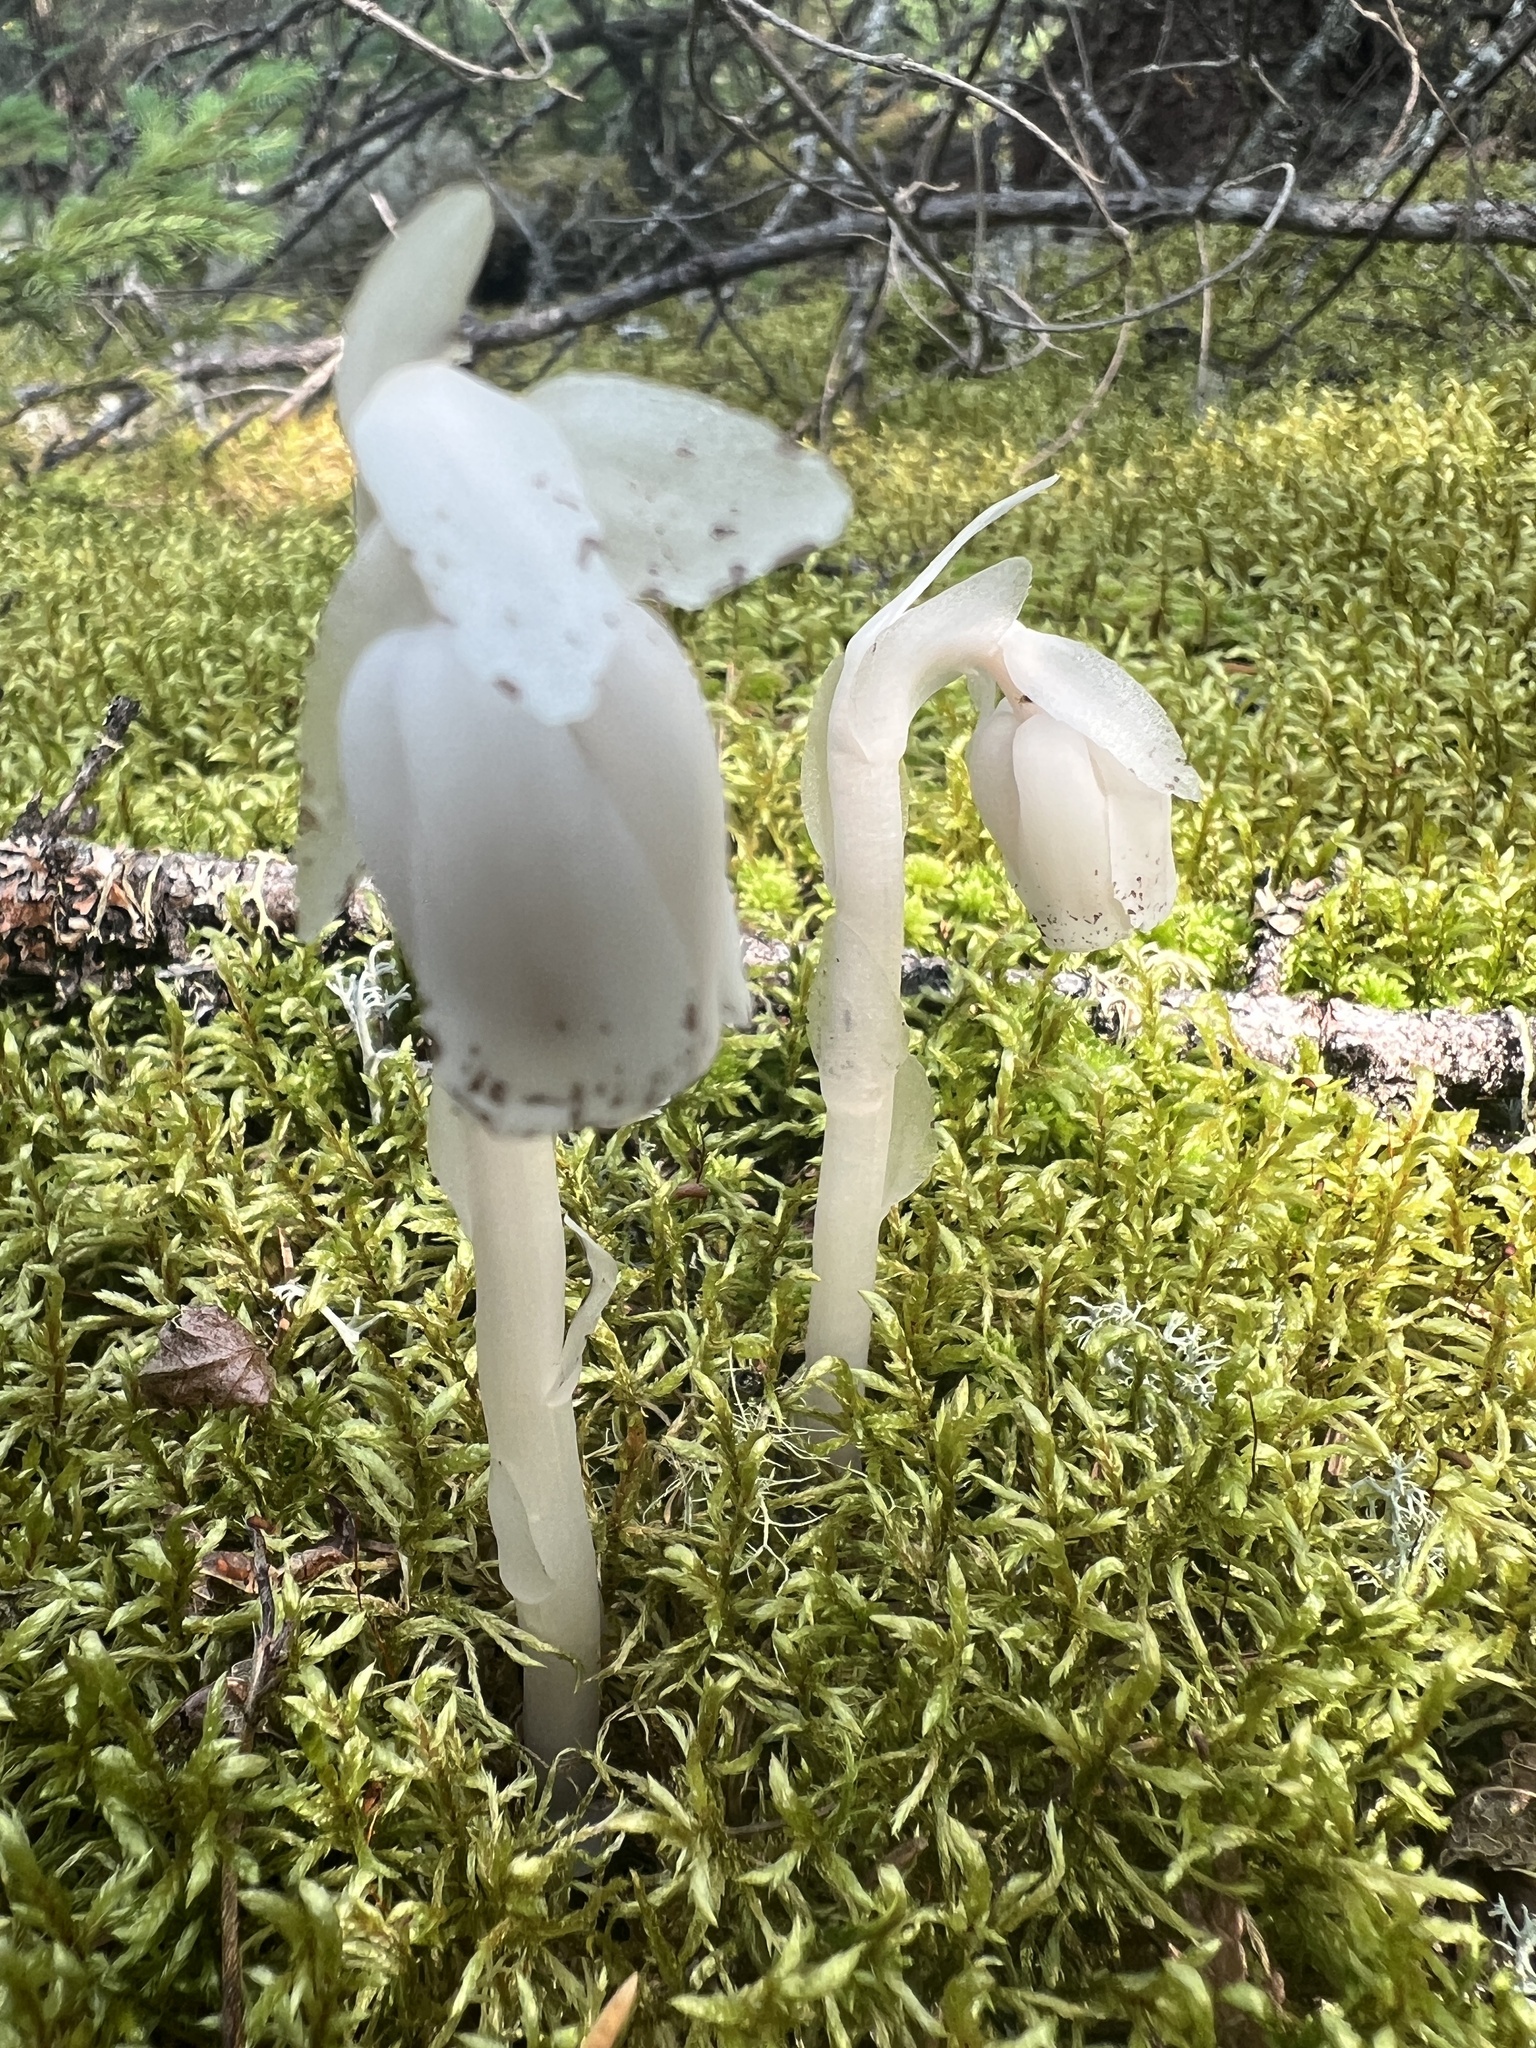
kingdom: Plantae
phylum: Tracheophyta
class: Magnoliopsida
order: Ericales
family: Ericaceae
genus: Monotropa
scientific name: Monotropa uniflora
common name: Convulsion root
